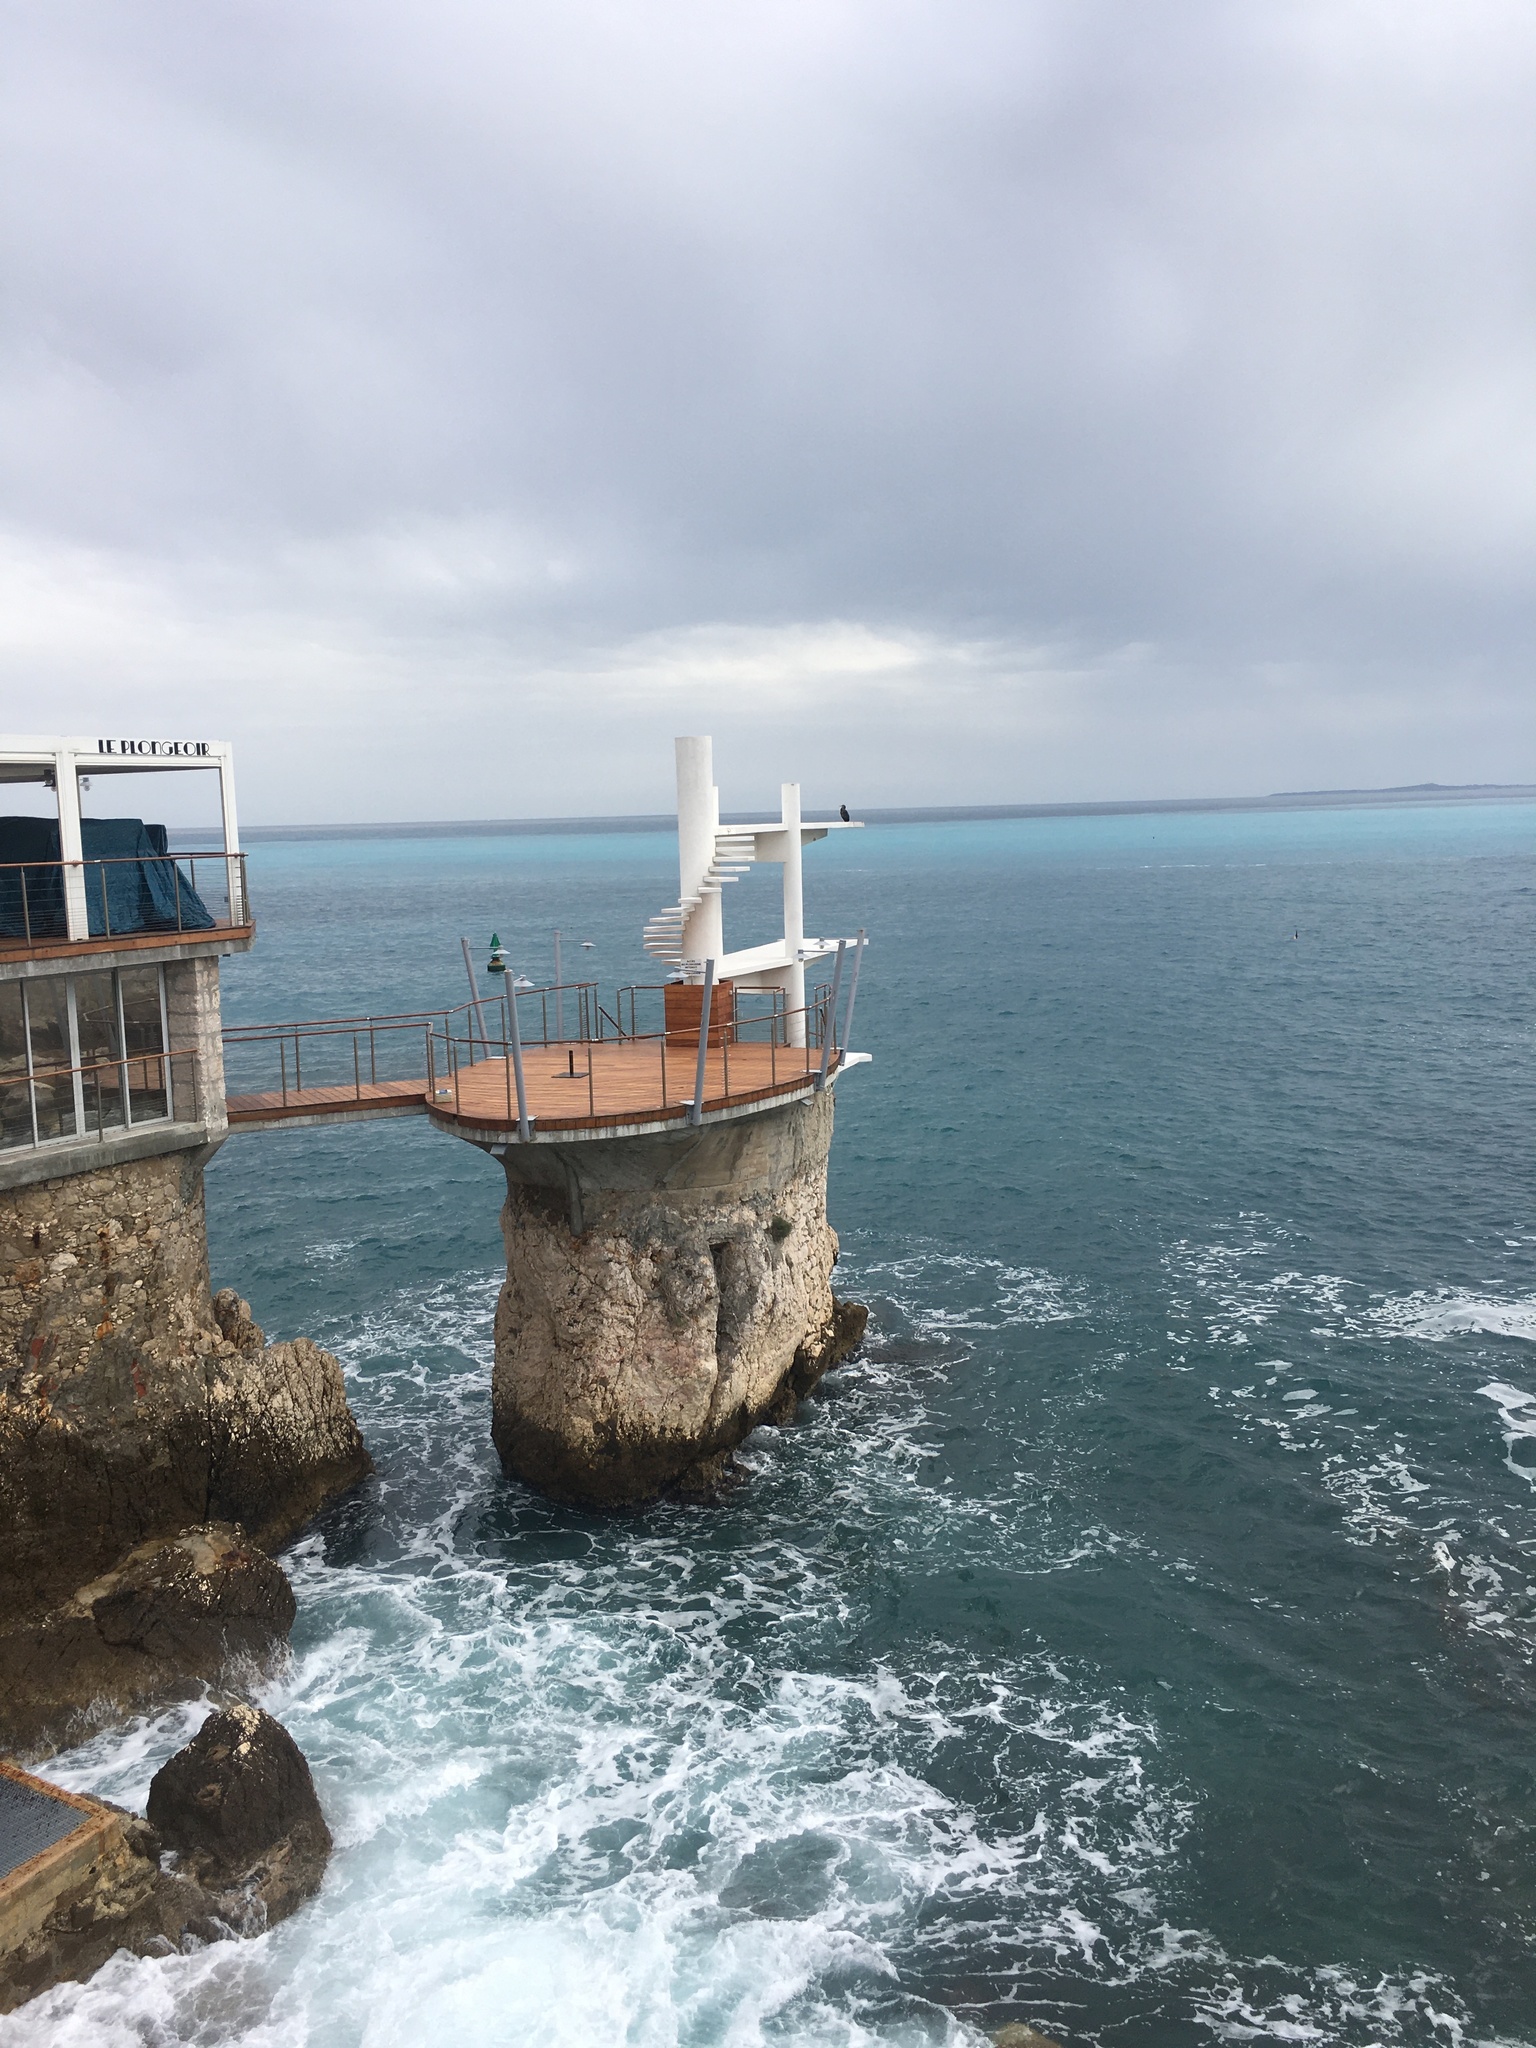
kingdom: Animalia
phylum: Chordata
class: Aves
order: Suliformes
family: Phalacrocoracidae
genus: Phalacrocorax
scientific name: Phalacrocorax carbo
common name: Great cormorant
